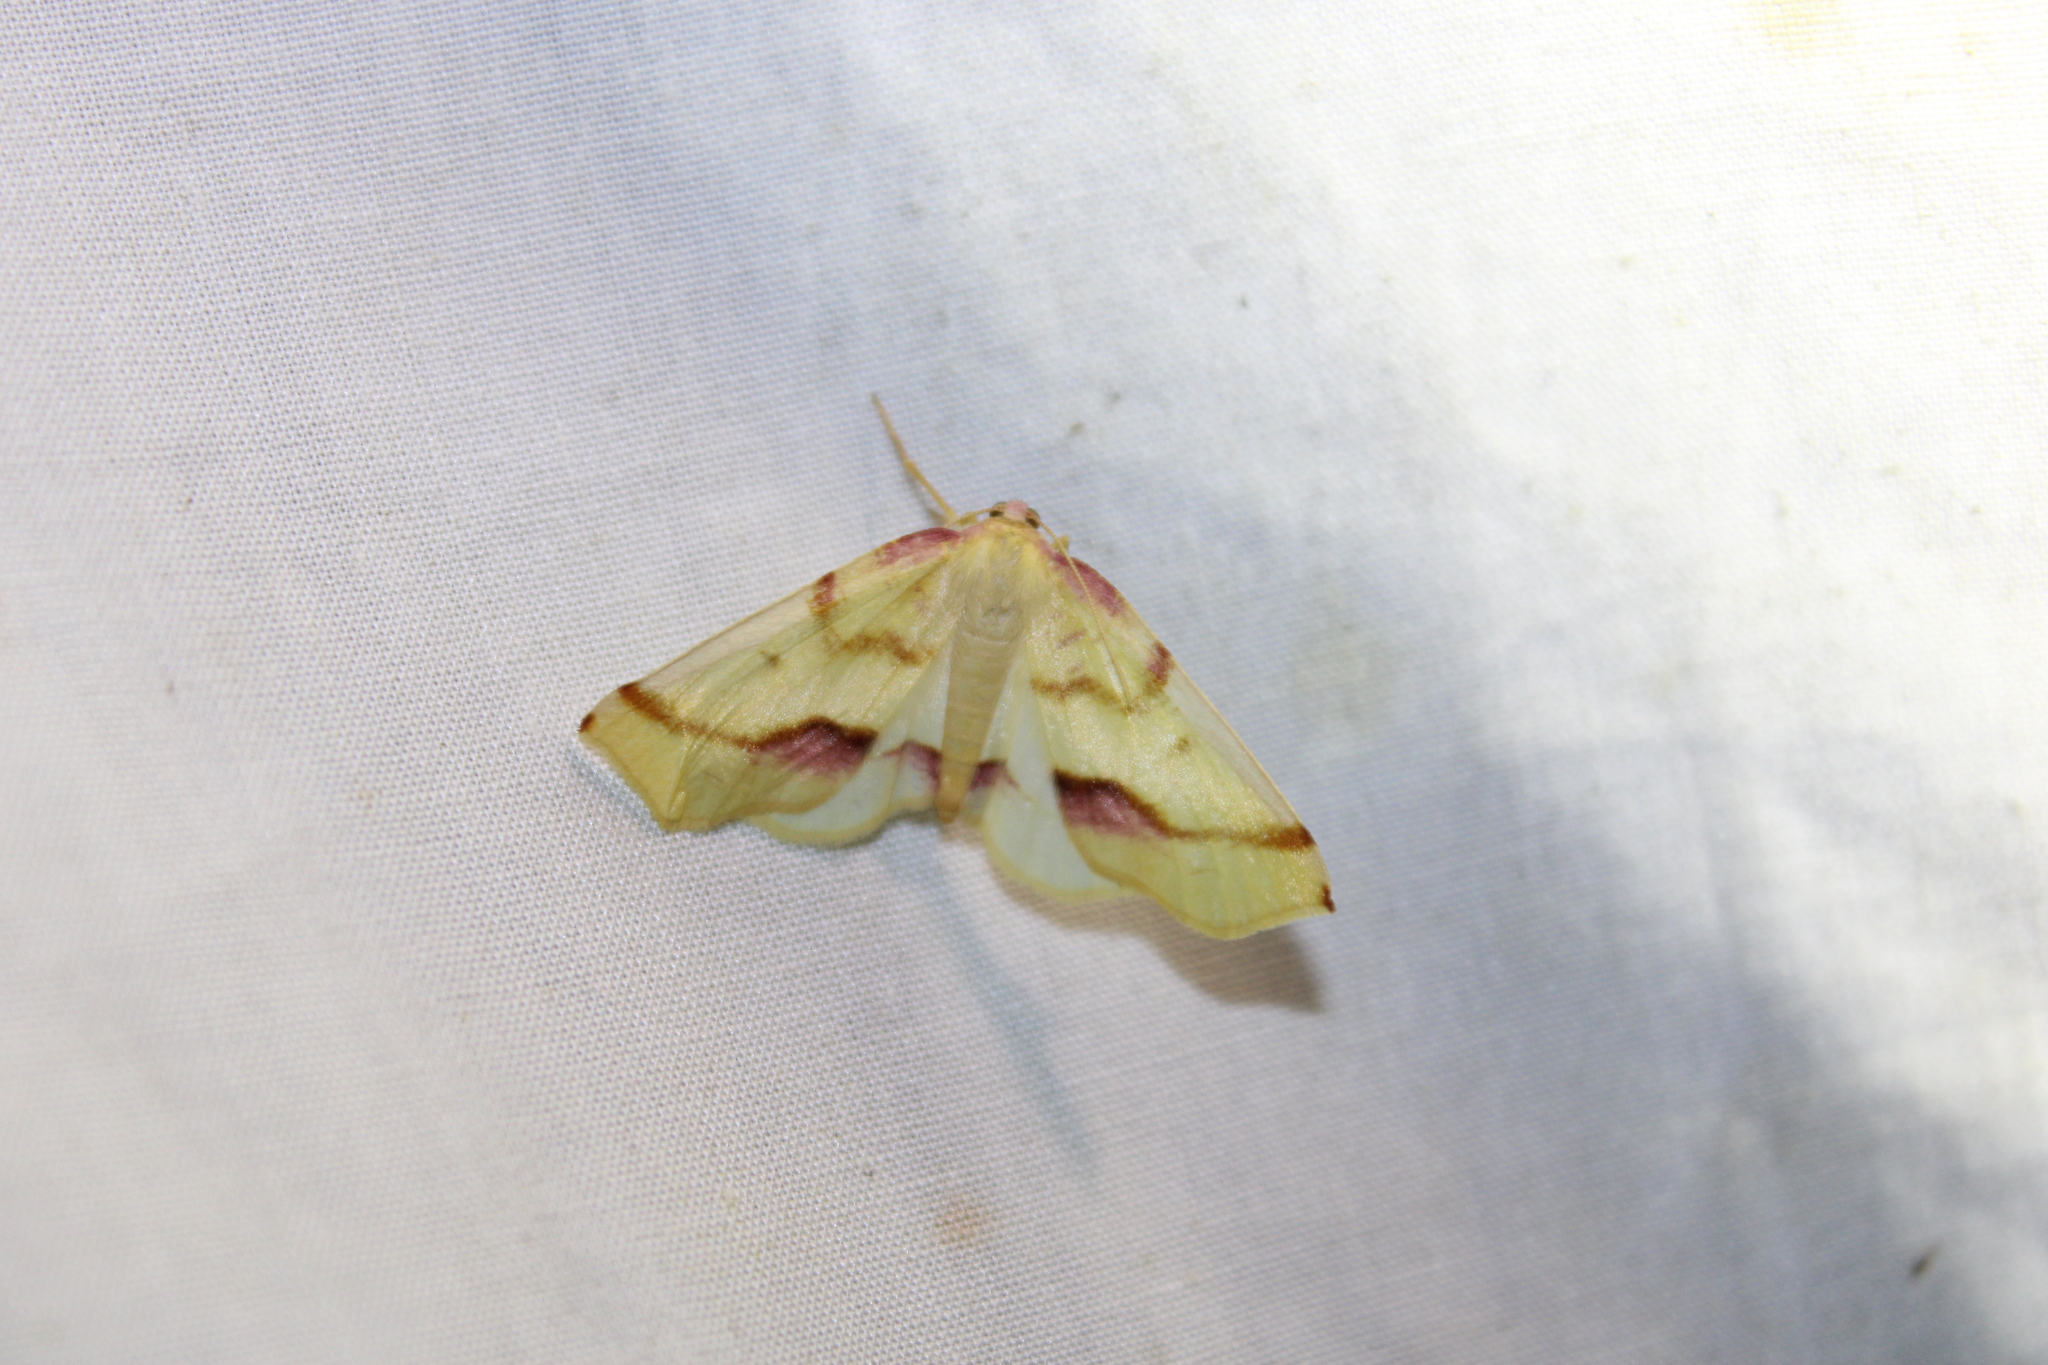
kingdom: Animalia
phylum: Arthropoda
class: Insecta
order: Lepidoptera
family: Geometridae
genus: Plagodis
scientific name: Plagodis serinaria
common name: Lemon plagodis
